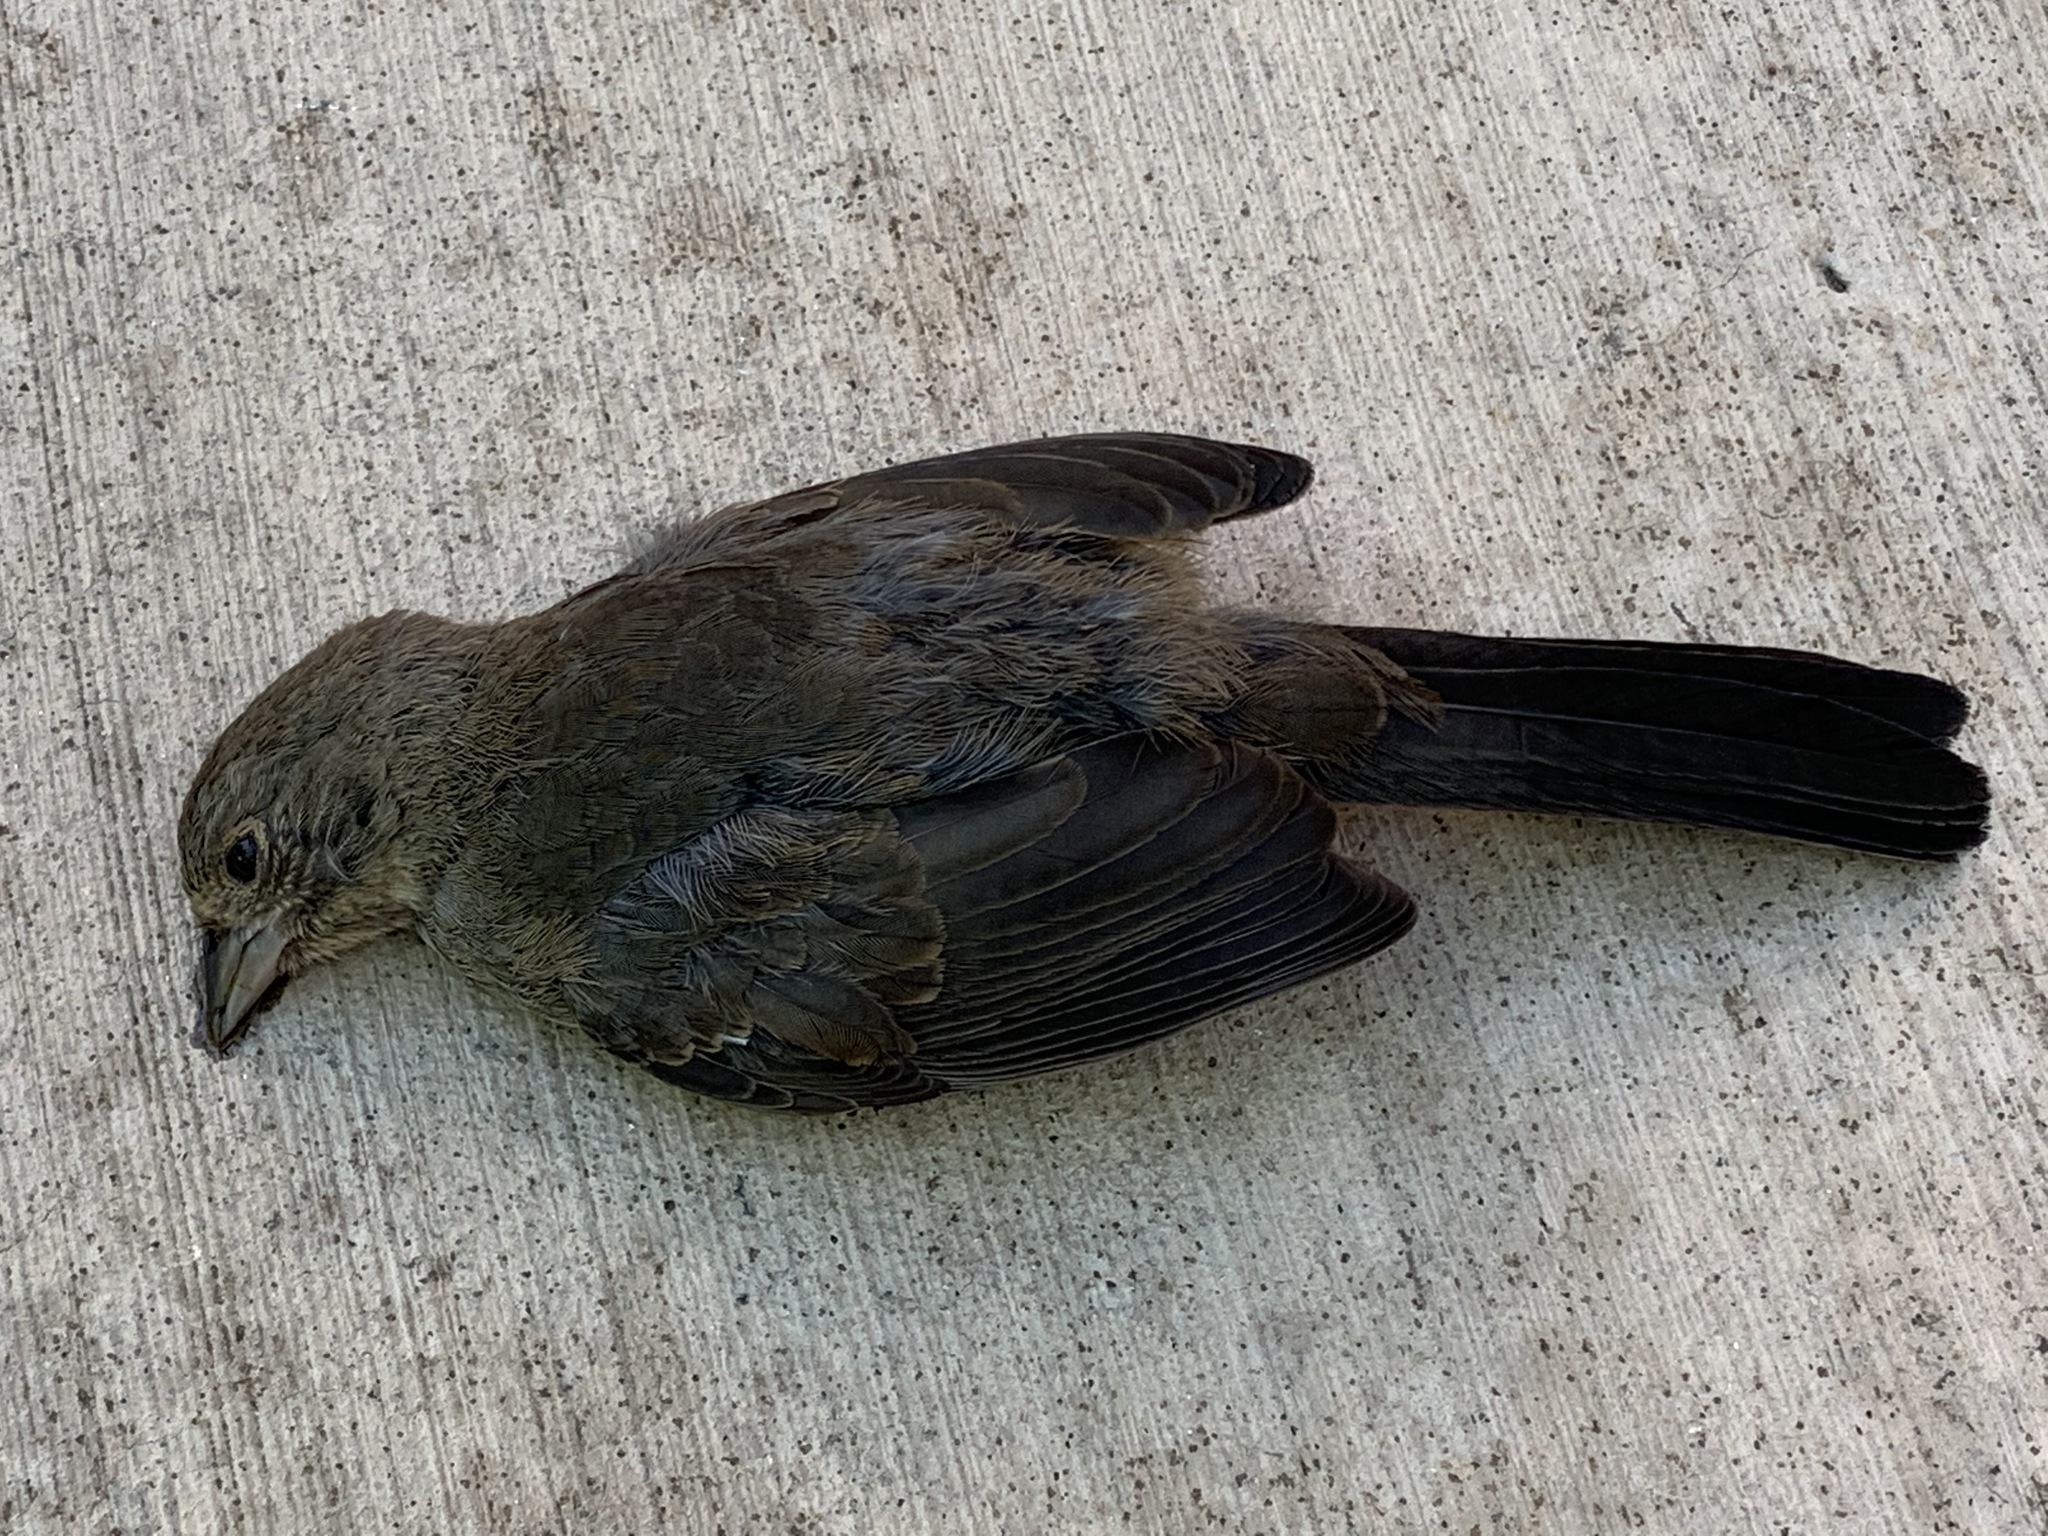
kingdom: Animalia
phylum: Chordata
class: Aves
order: Passeriformes
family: Passerellidae
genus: Melozone
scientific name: Melozone crissalis
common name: California towhee
